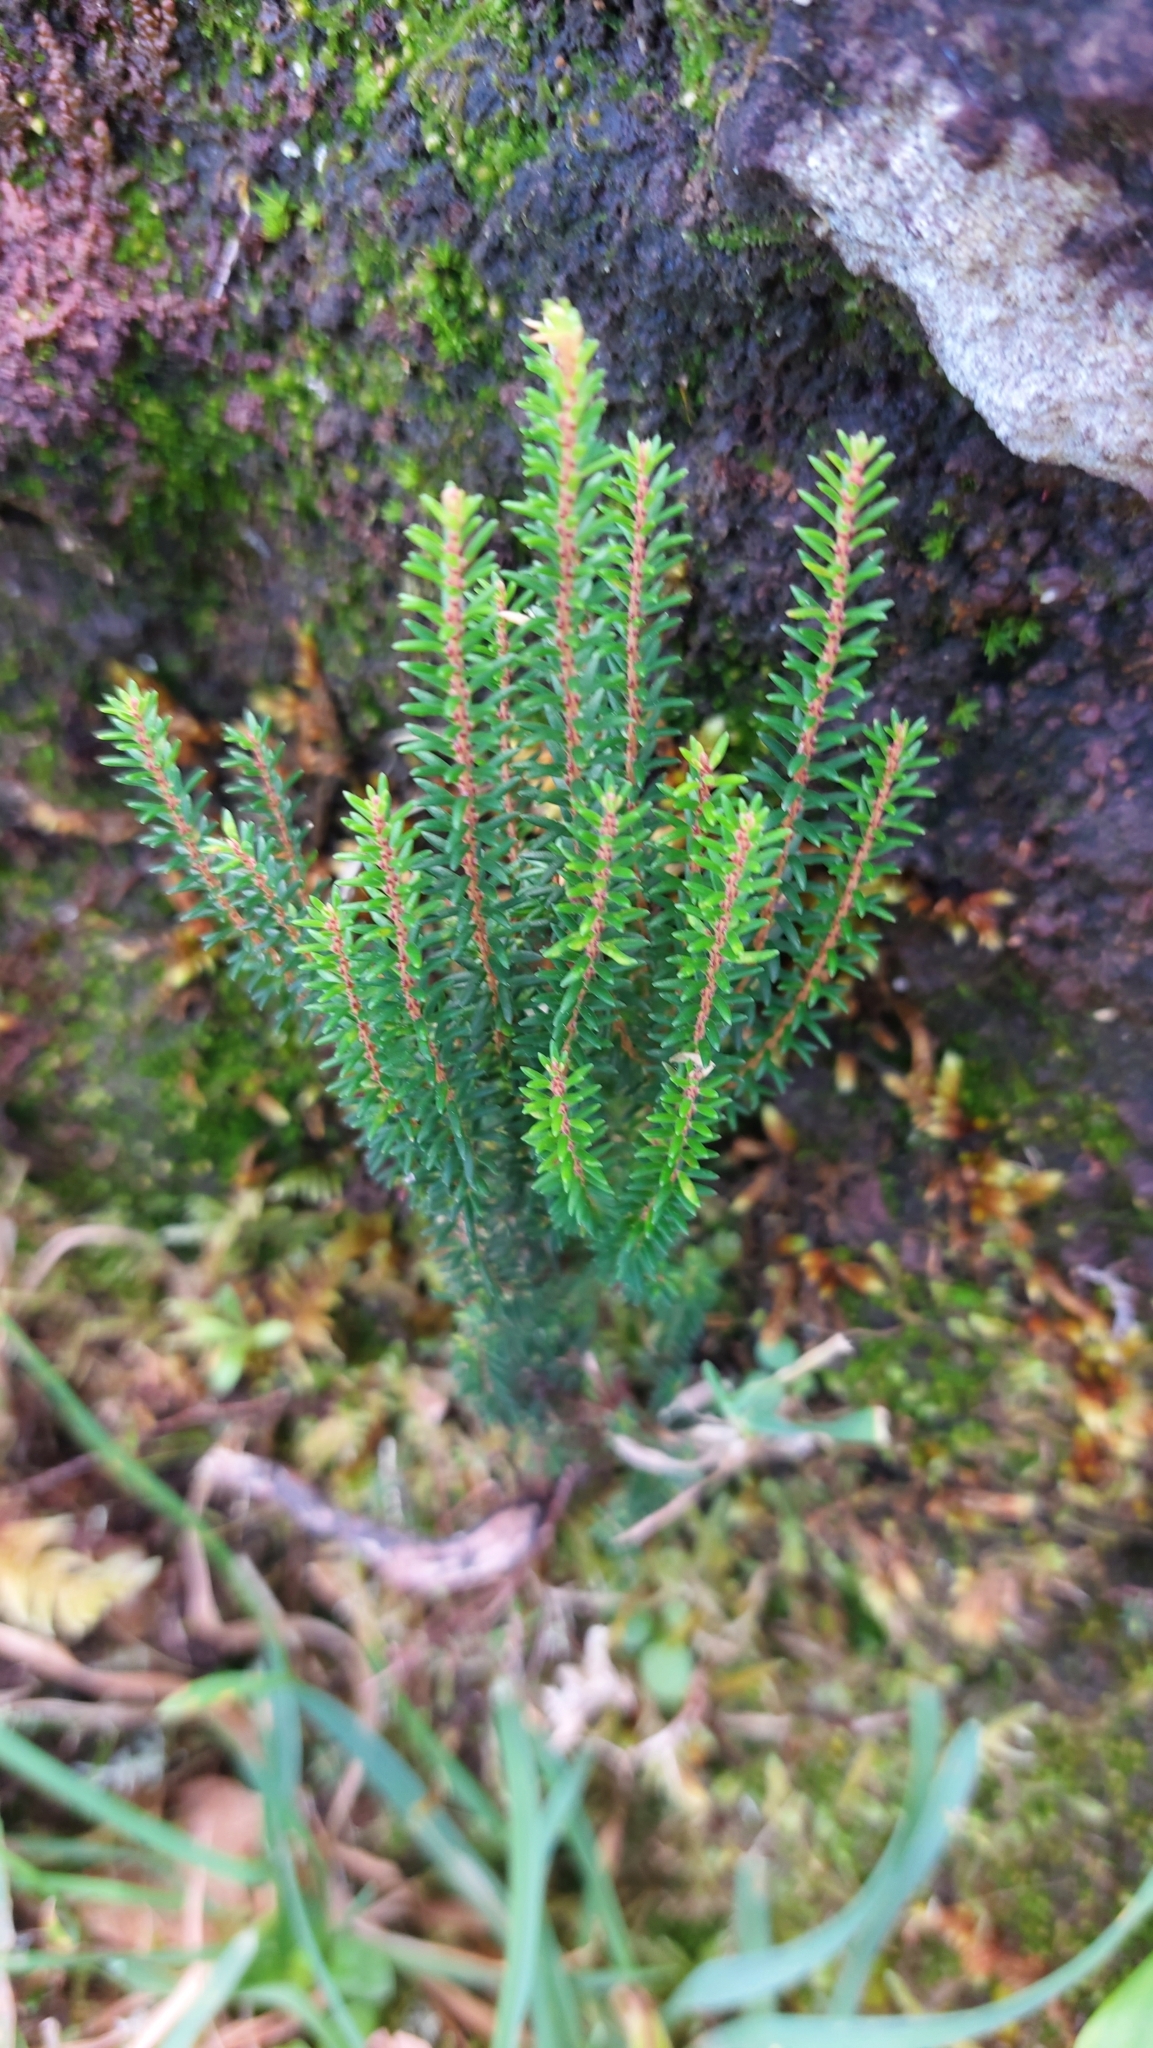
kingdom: Plantae
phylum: Tracheophyta
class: Magnoliopsida
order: Ericales
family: Ericaceae
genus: Erica
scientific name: Erica azorica
